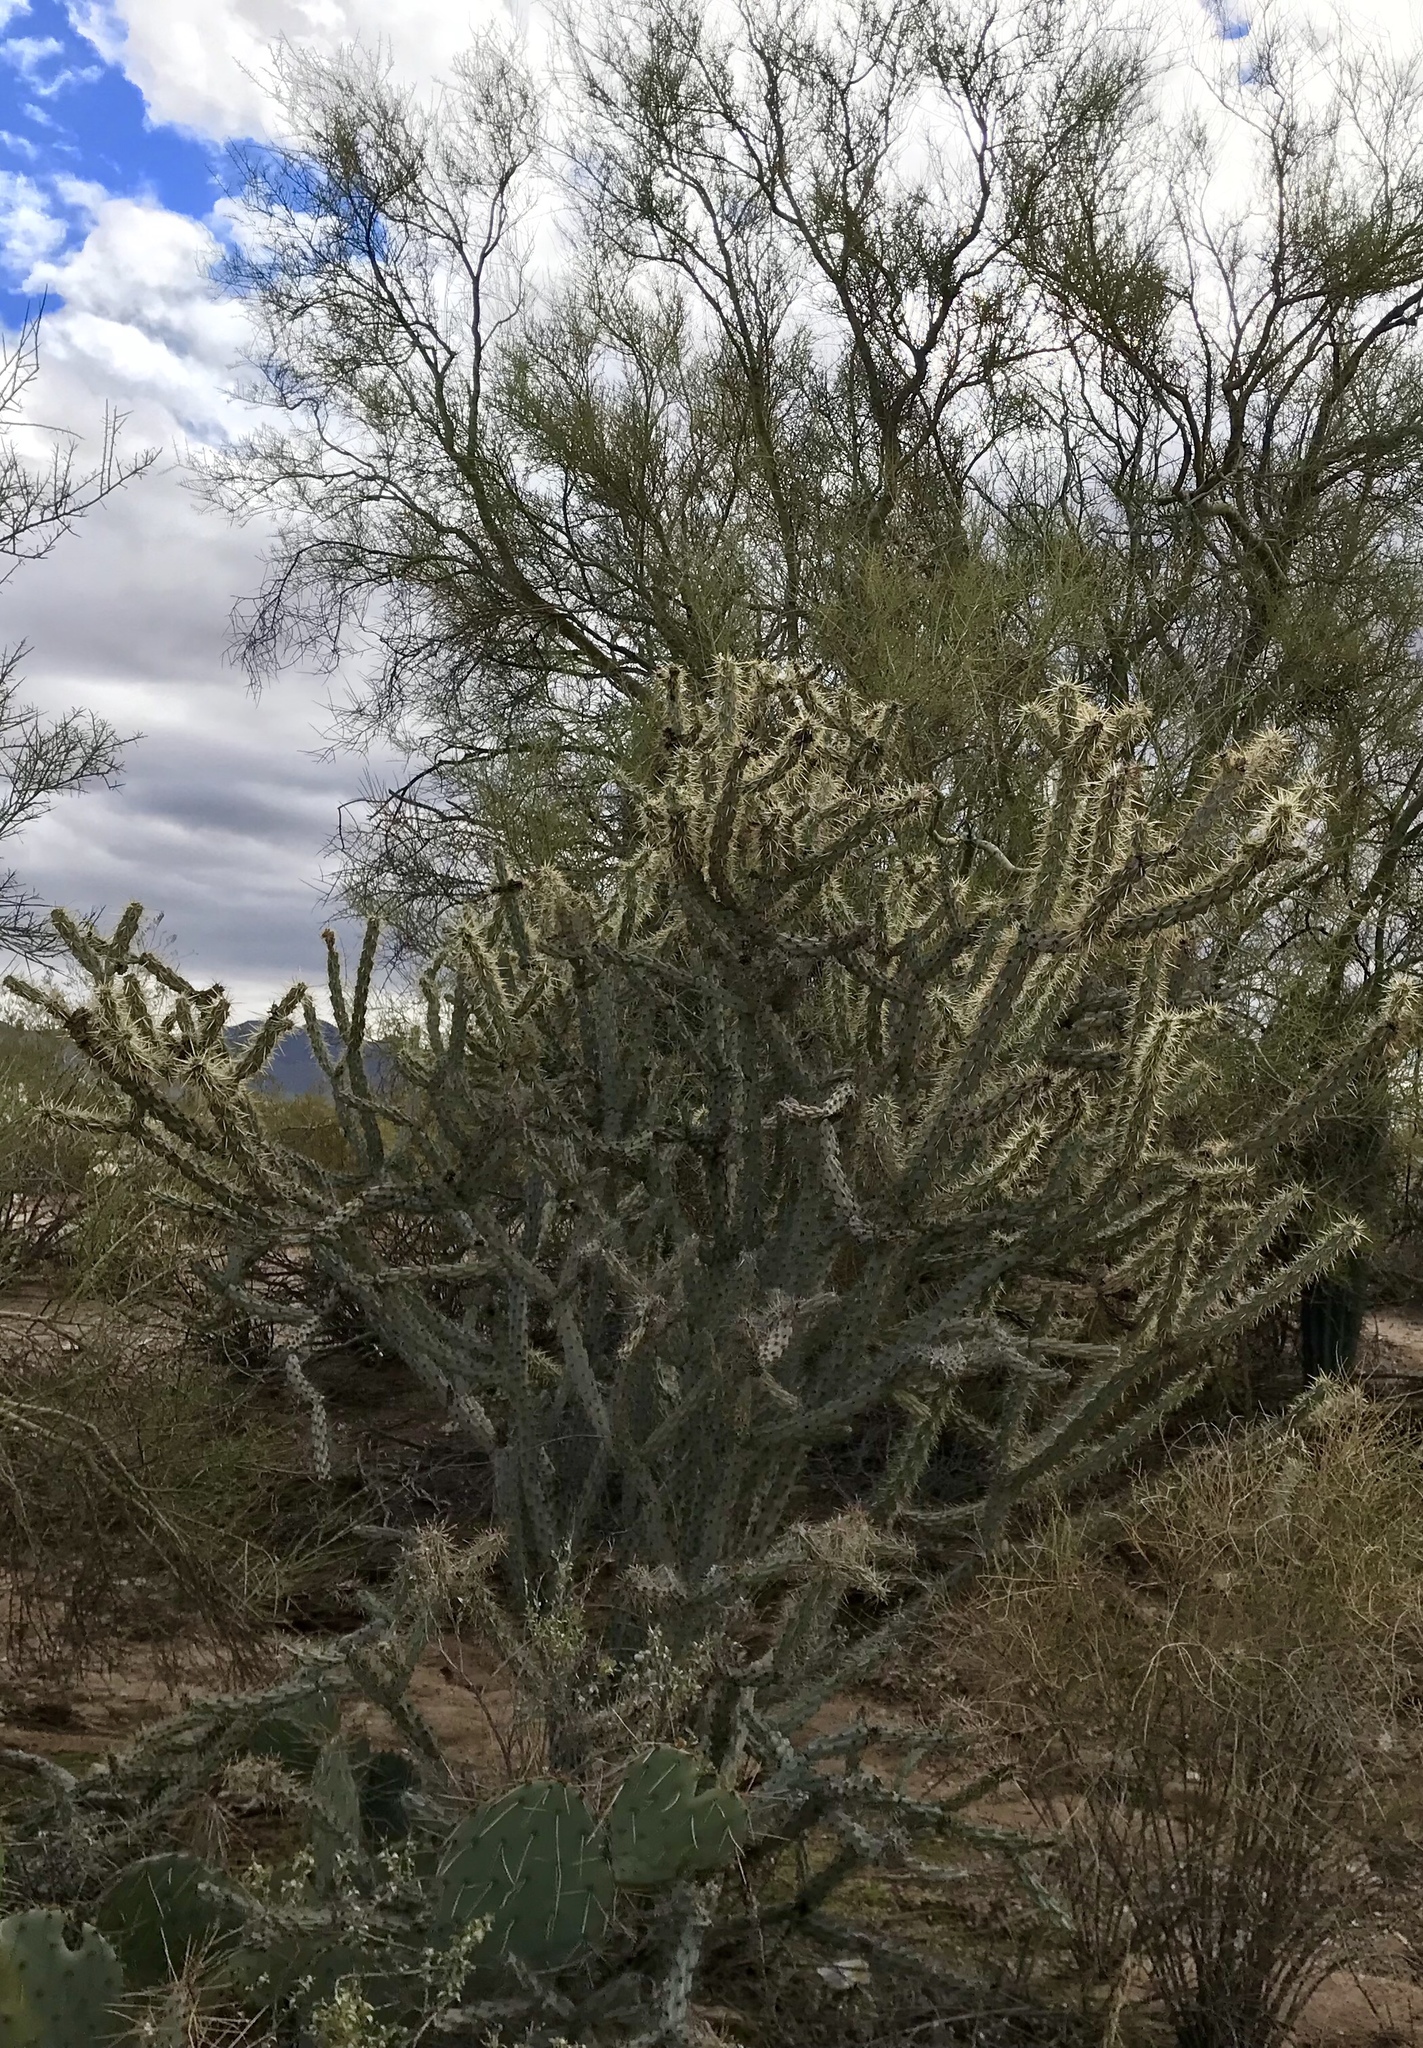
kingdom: Plantae
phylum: Tracheophyta
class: Magnoliopsida
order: Caryophyllales
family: Cactaceae
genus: Cylindropuntia
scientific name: Cylindropuntia acanthocarpa
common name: Buckhorn cholla
